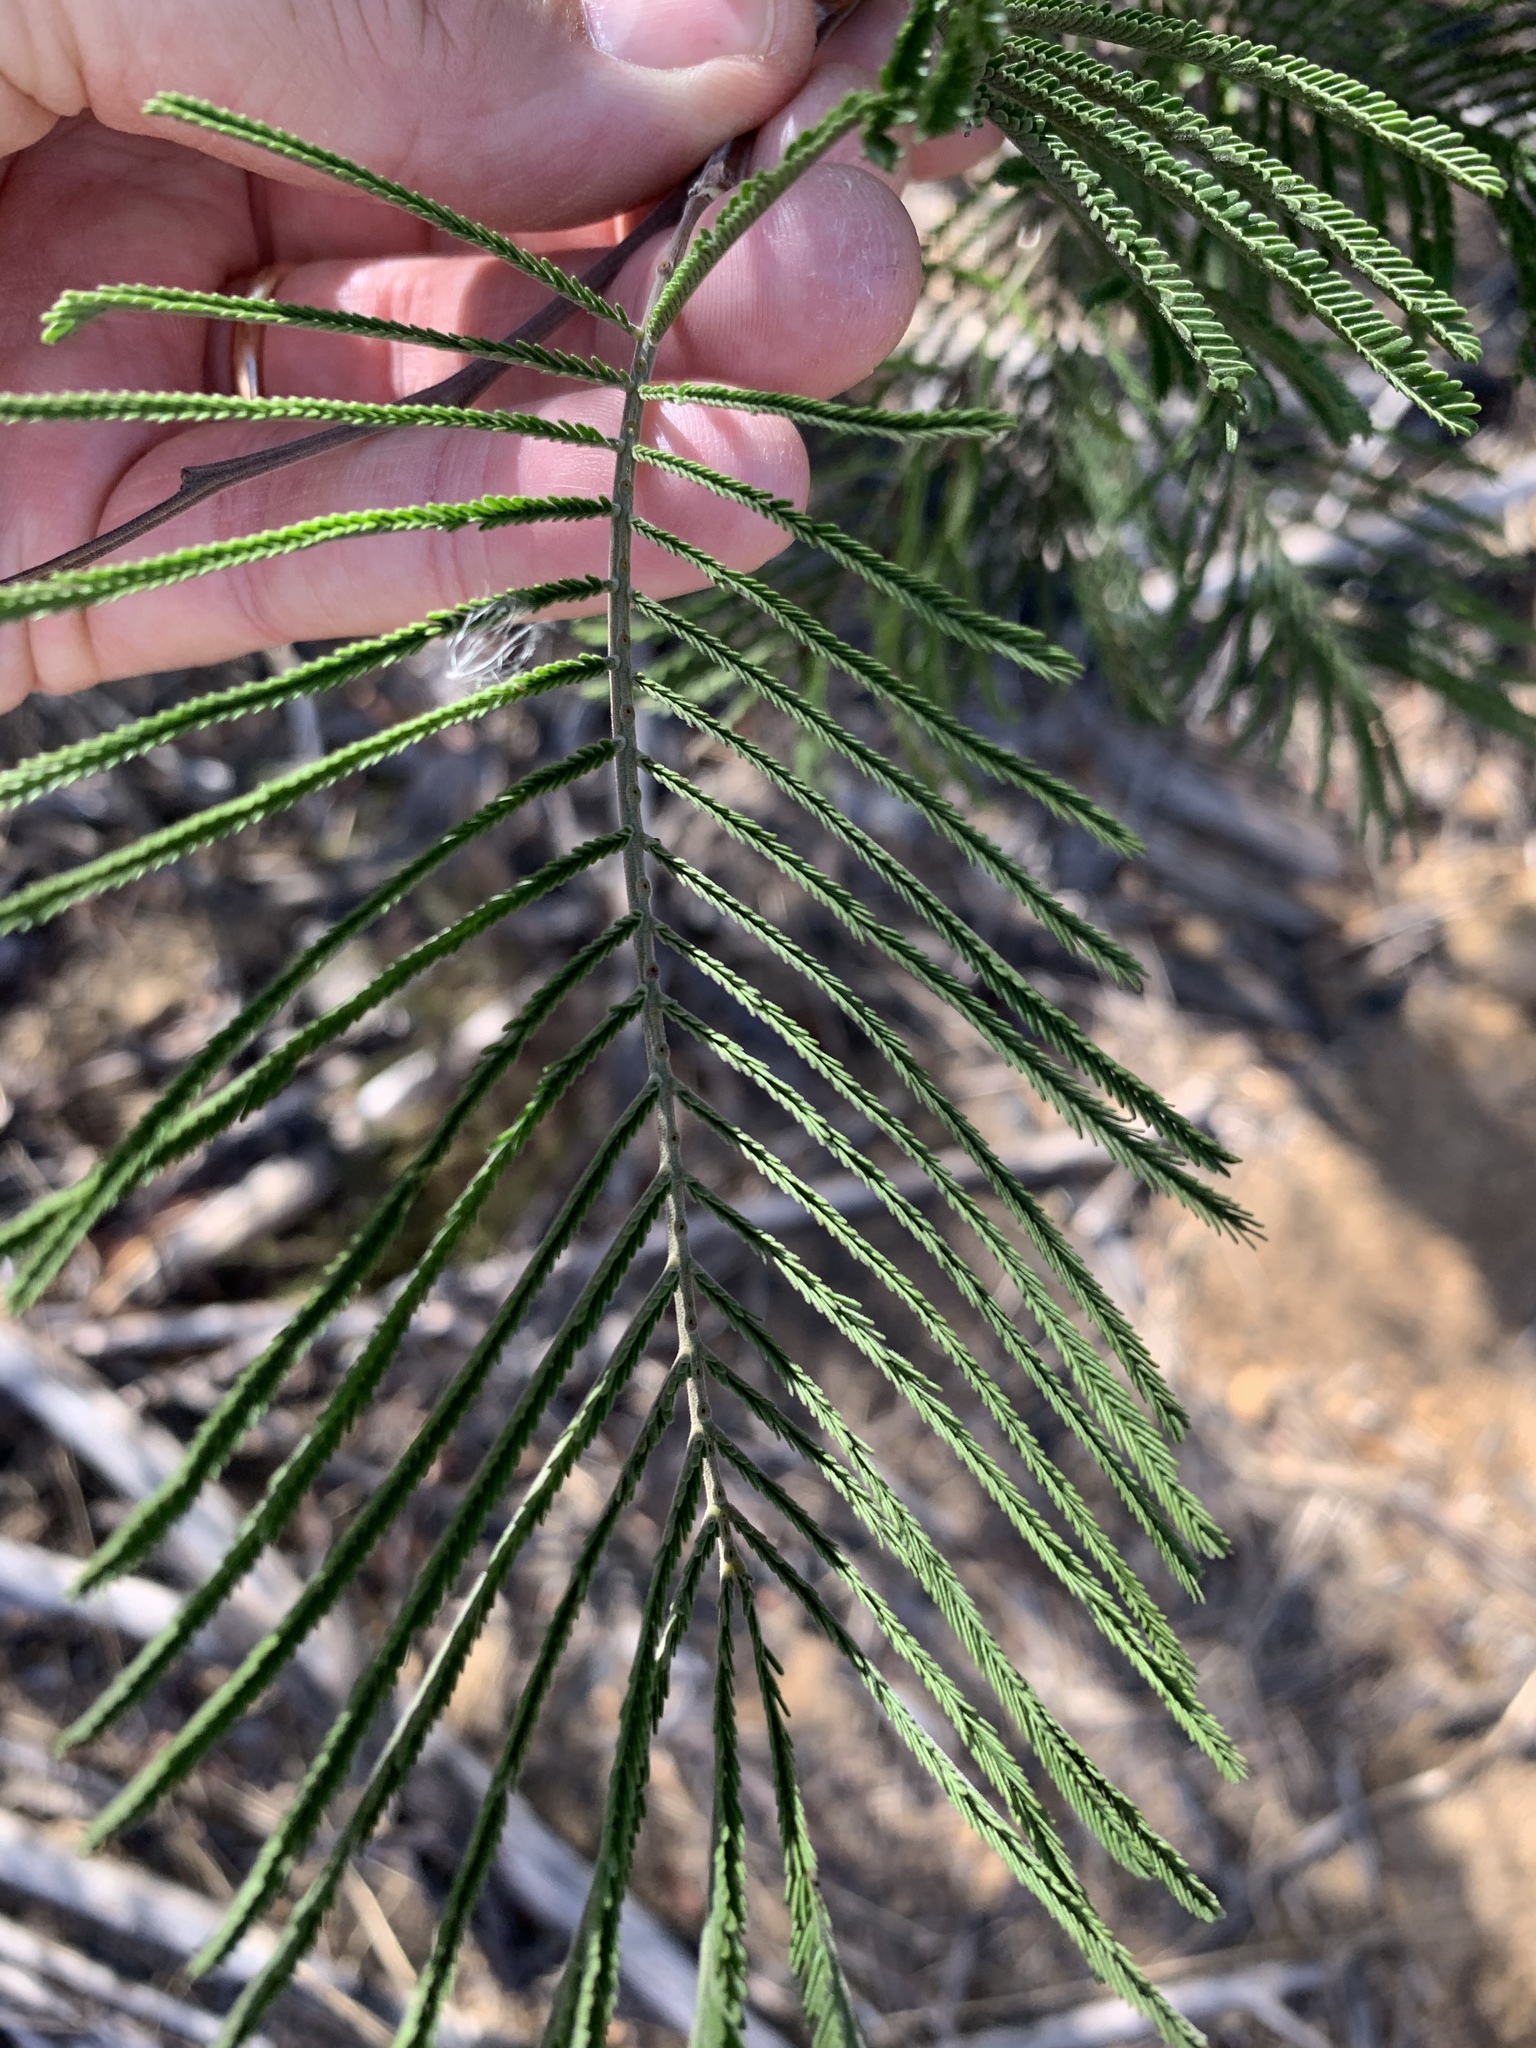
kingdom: Plantae
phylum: Tracheophyta
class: Magnoliopsida
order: Fabales
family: Fabaceae
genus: Acacia
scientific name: Acacia mearnsii
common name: Black wattle
